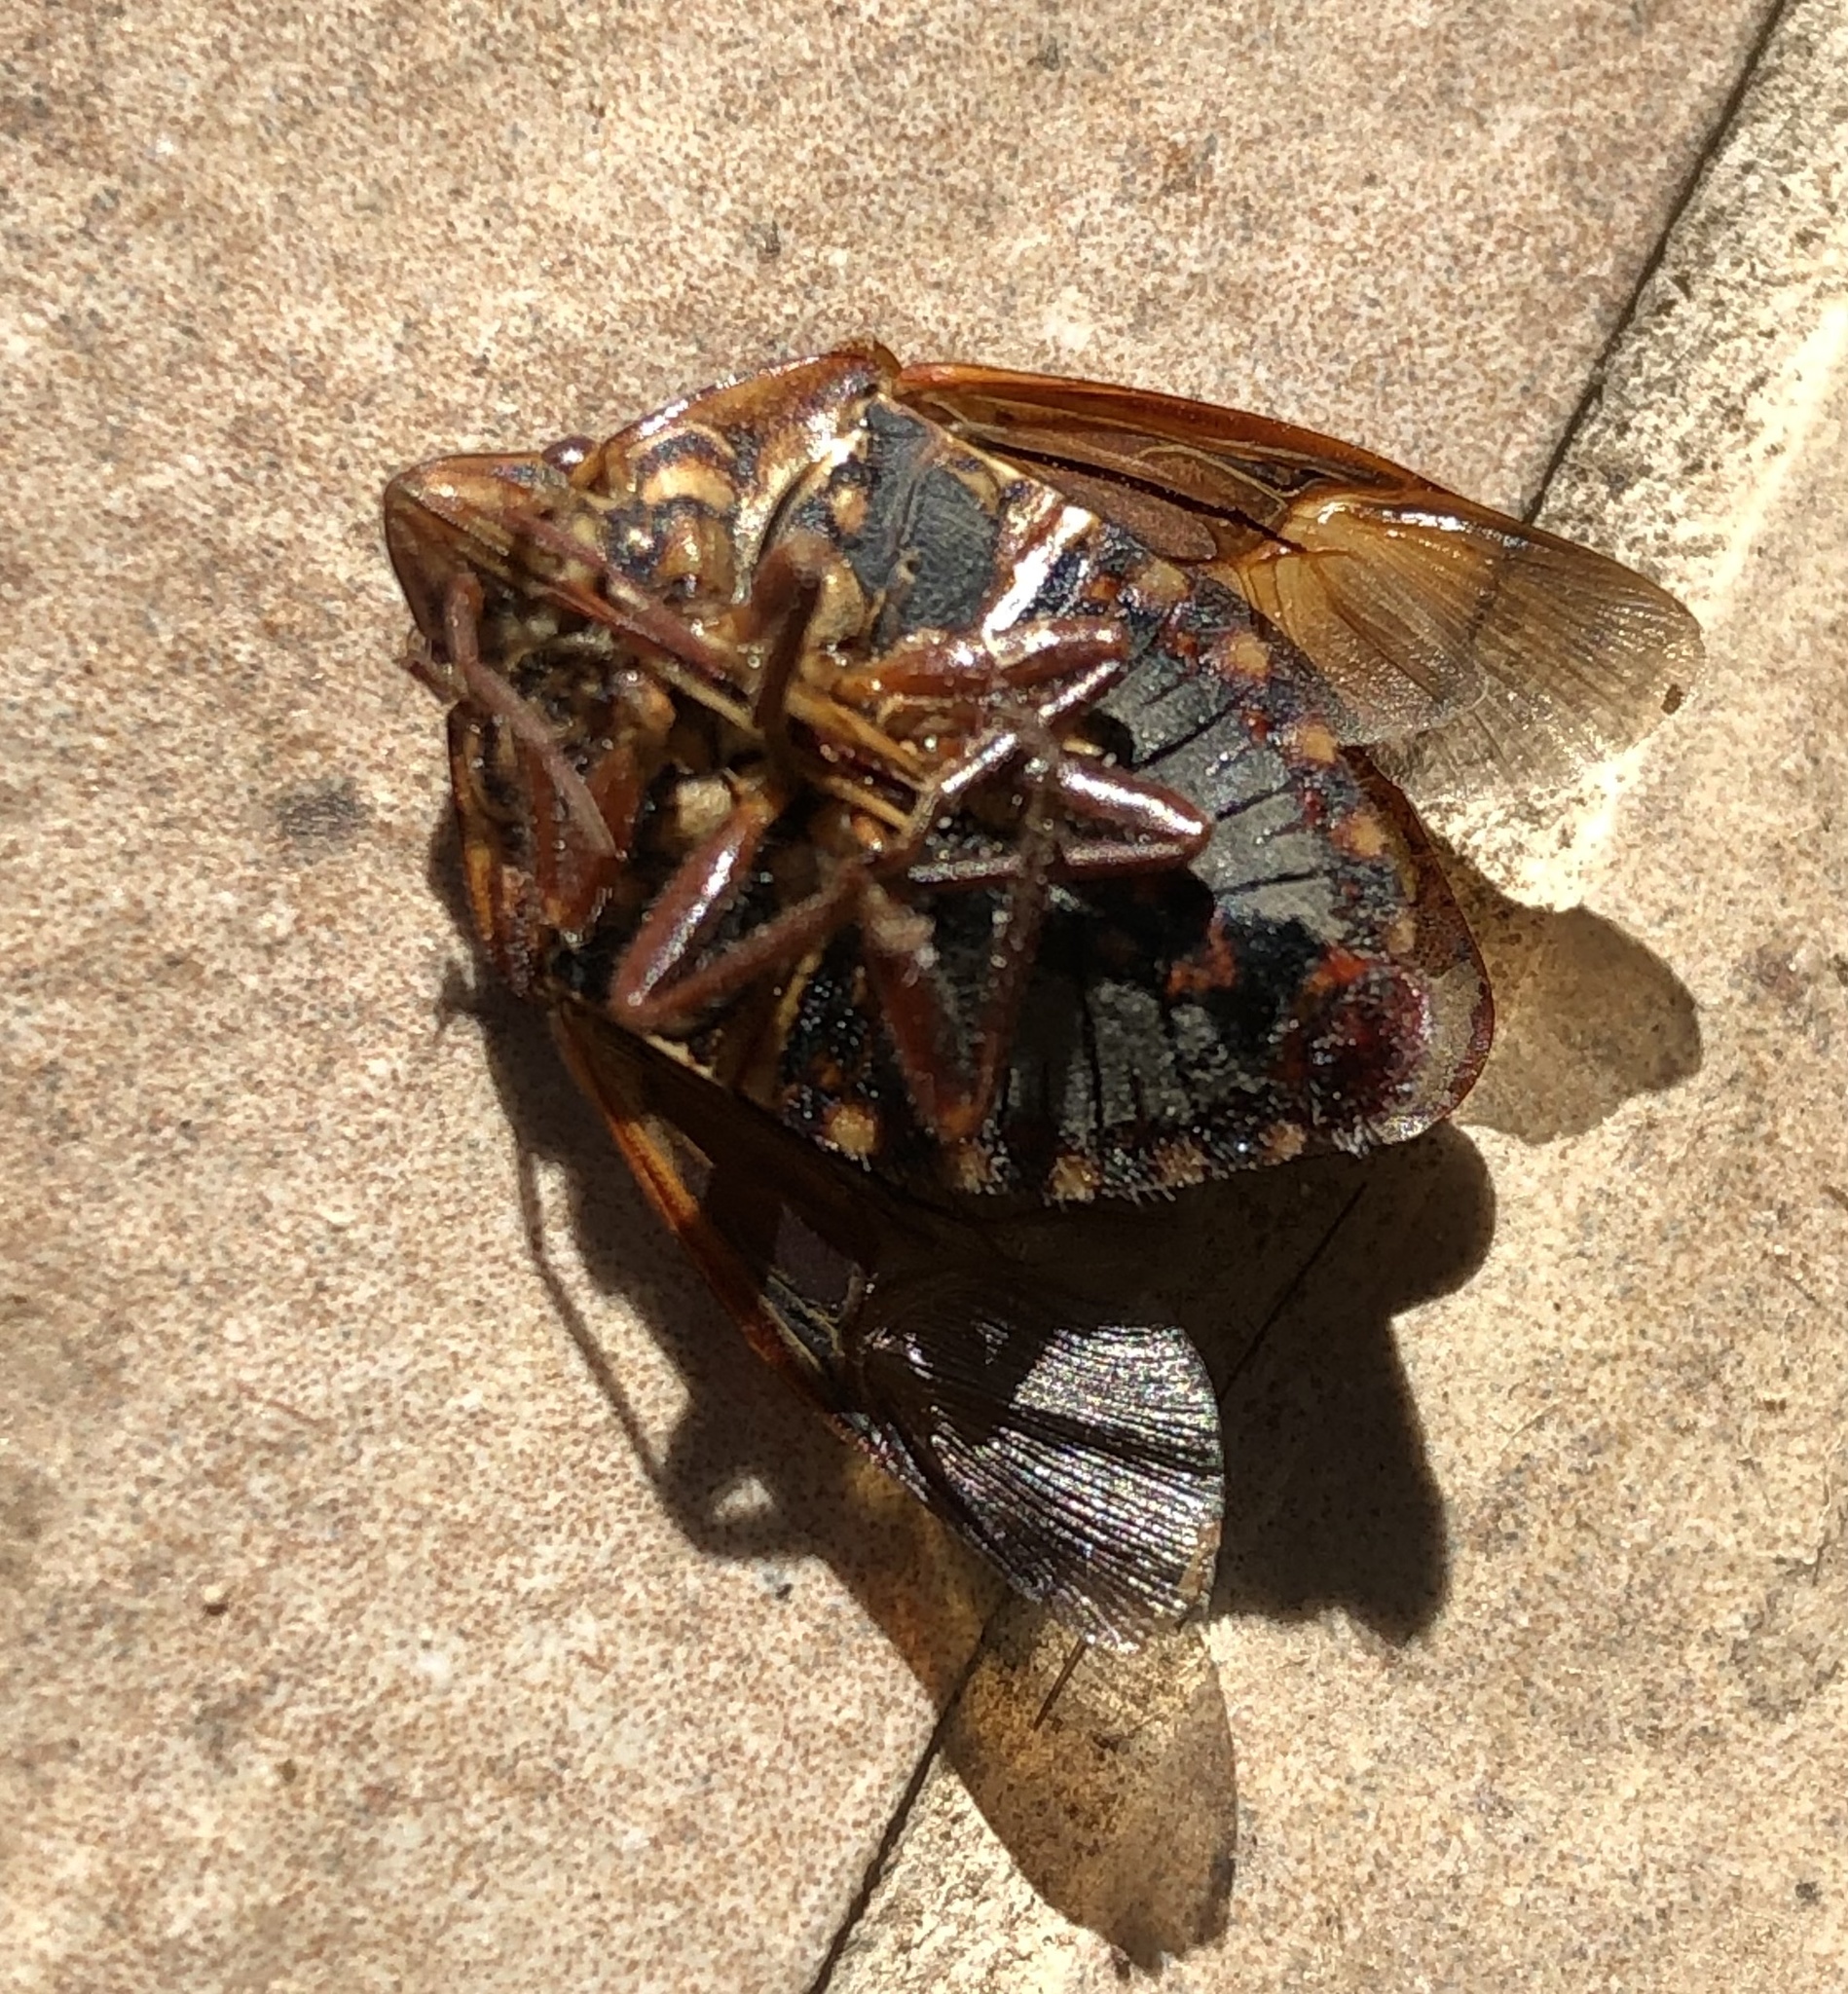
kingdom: Animalia
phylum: Arthropoda
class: Insecta
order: Hemiptera
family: Scutelleridae
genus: Solenosthedium
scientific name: Solenosthedium bilunatum
